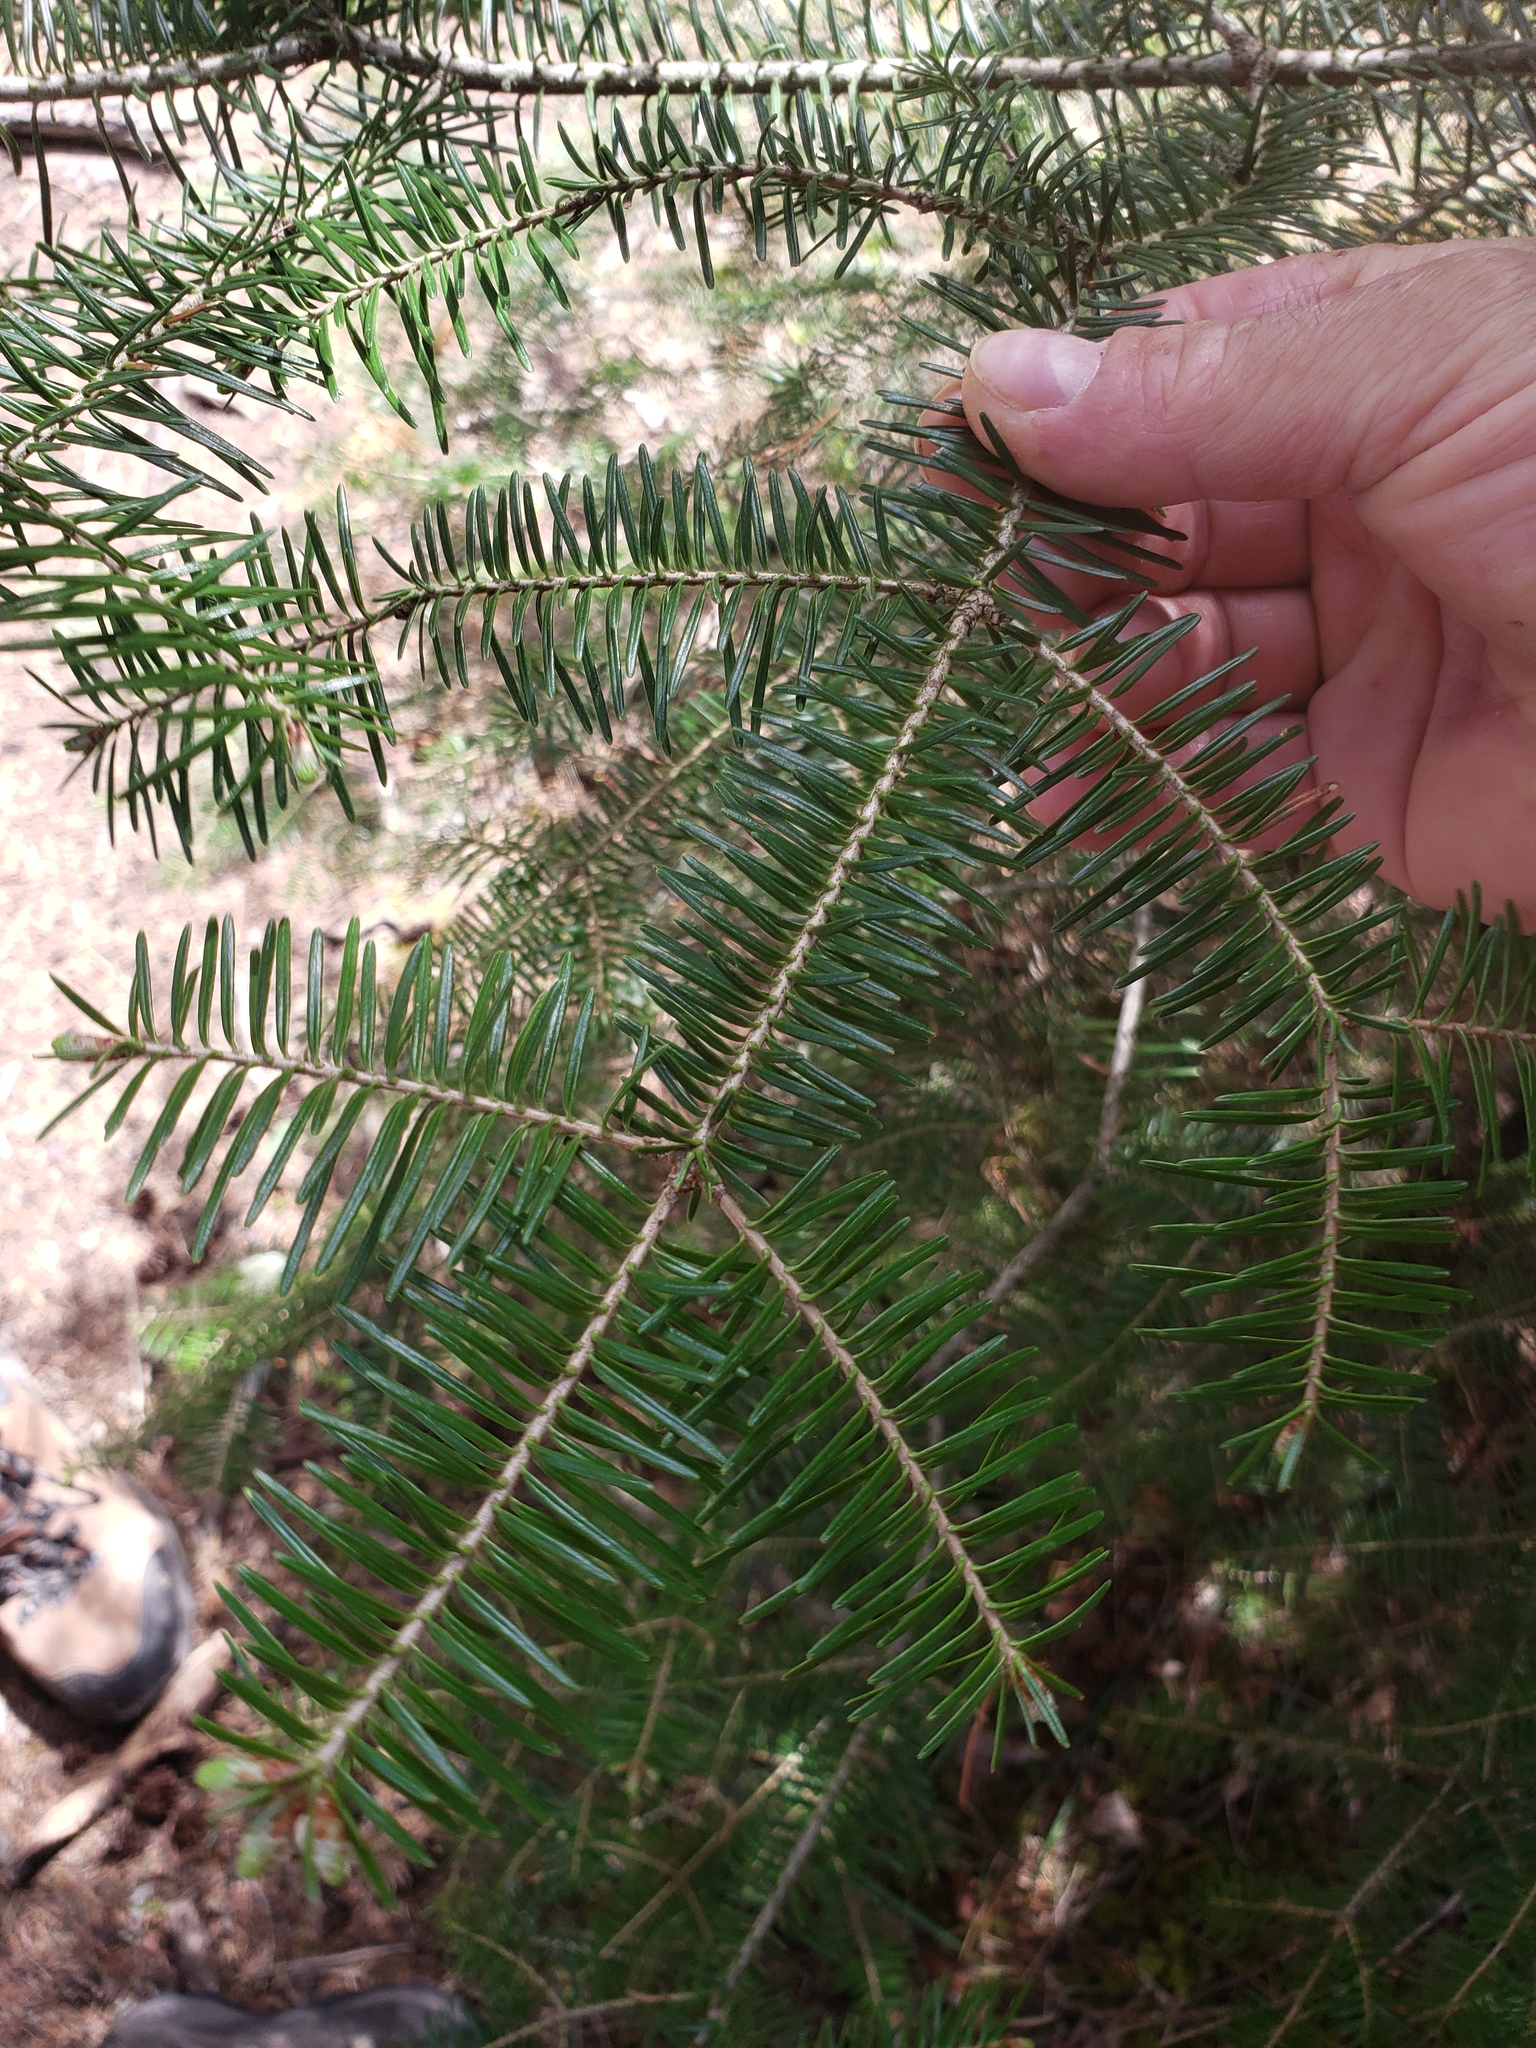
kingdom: Plantae
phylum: Tracheophyta
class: Pinopsida
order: Pinales
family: Pinaceae
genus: Abies
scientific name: Abies balsamea
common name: Balsam fir
